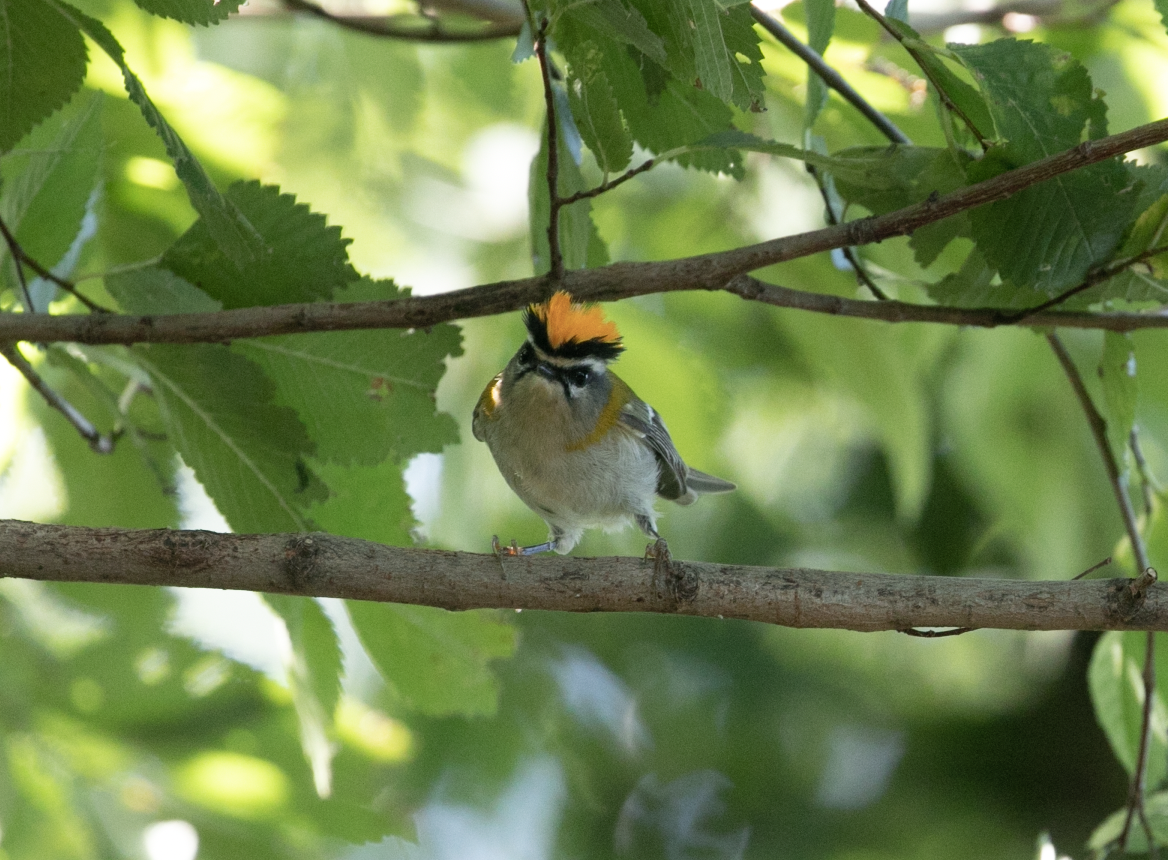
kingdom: Animalia
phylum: Chordata
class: Aves
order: Passeriformes
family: Regulidae
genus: Regulus
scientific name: Regulus ignicapilla
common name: Firecrest
